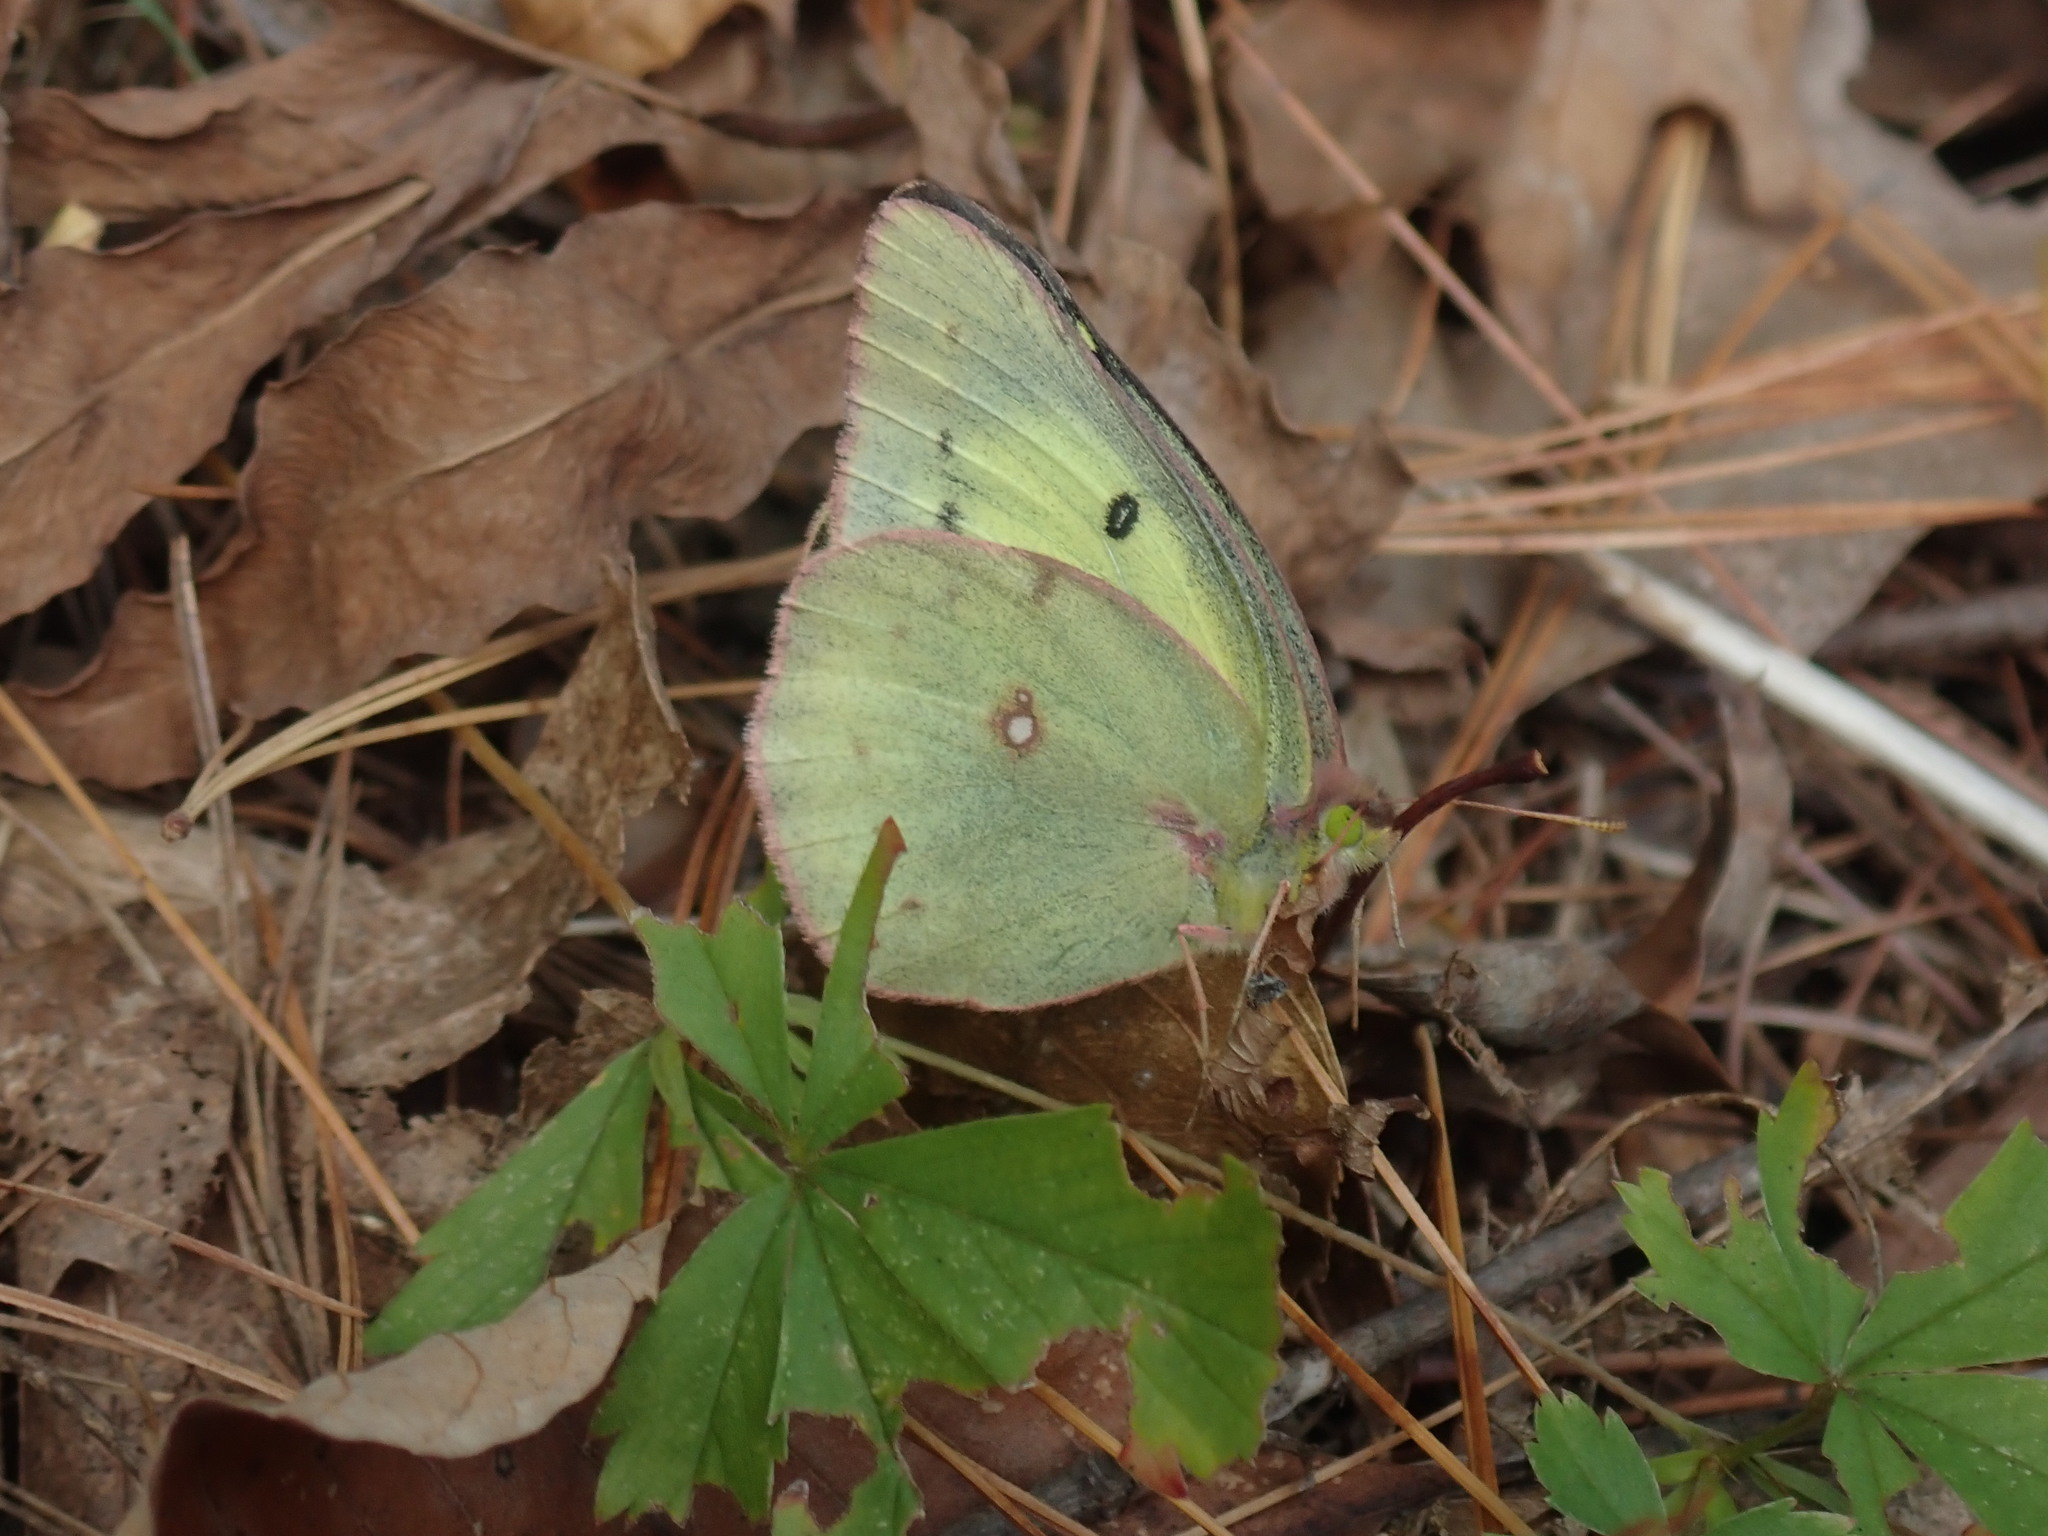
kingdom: Animalia
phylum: Arthropoda
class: Insecta
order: Lepidoptera
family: Pieridae
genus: Colias
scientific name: Colias philodice
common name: Clouded sulphur
